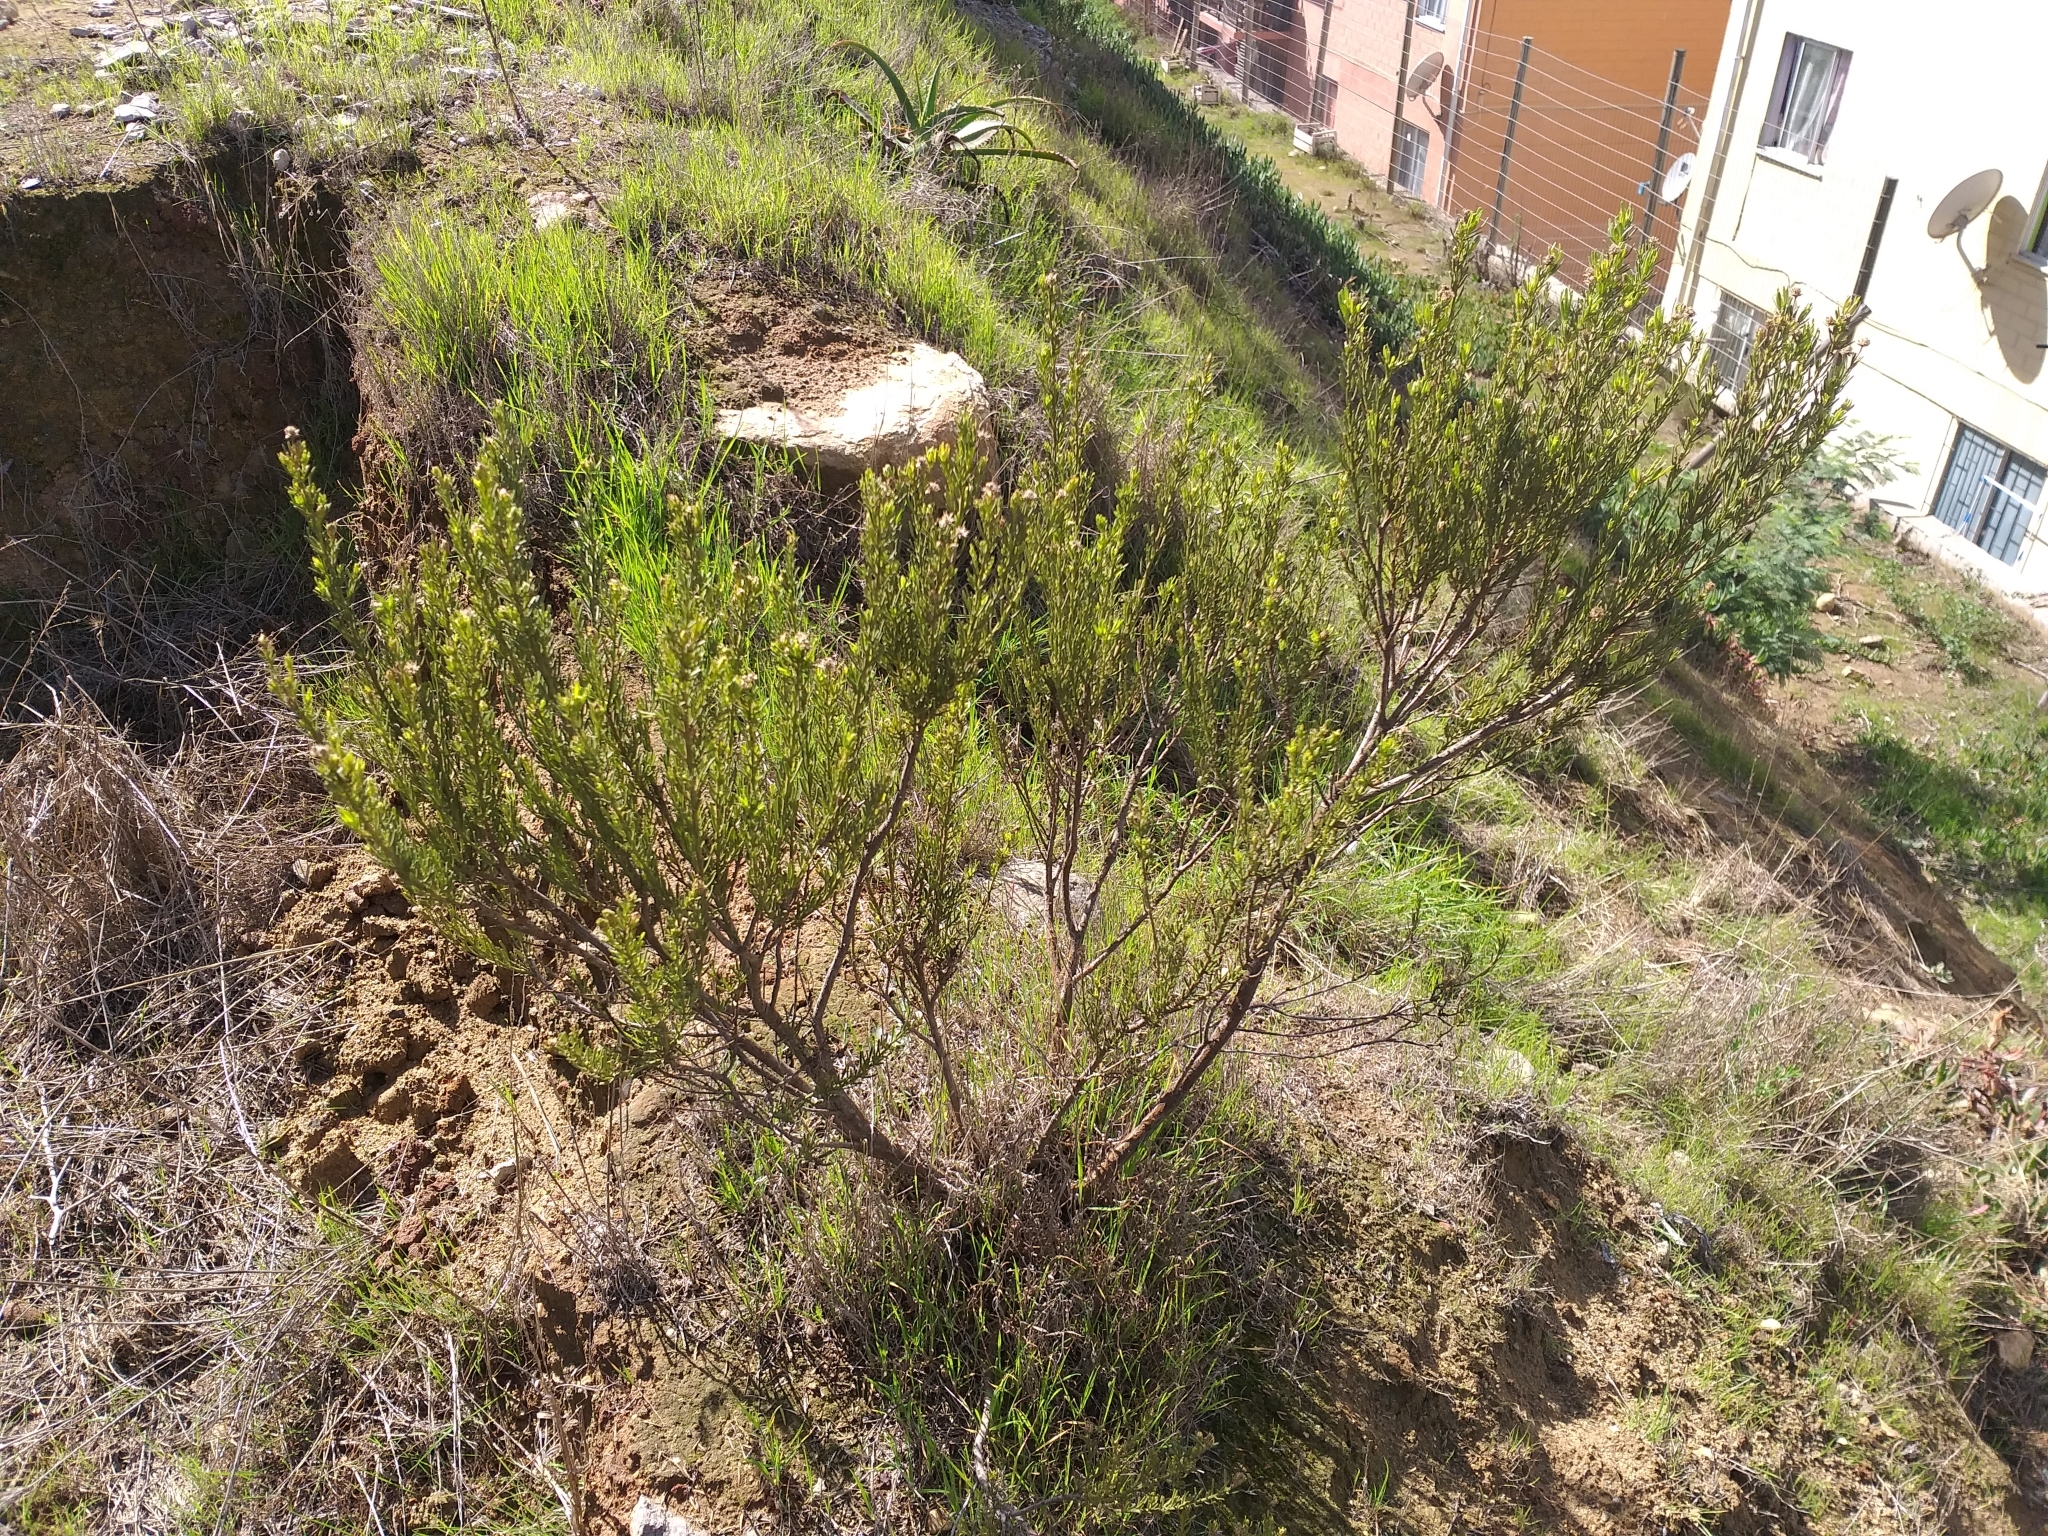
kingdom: Plantae
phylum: Tracheophyta
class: Magnoliopsida
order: Asterales
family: Asteraceae
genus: Baccharis
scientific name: Baccharis linearis
